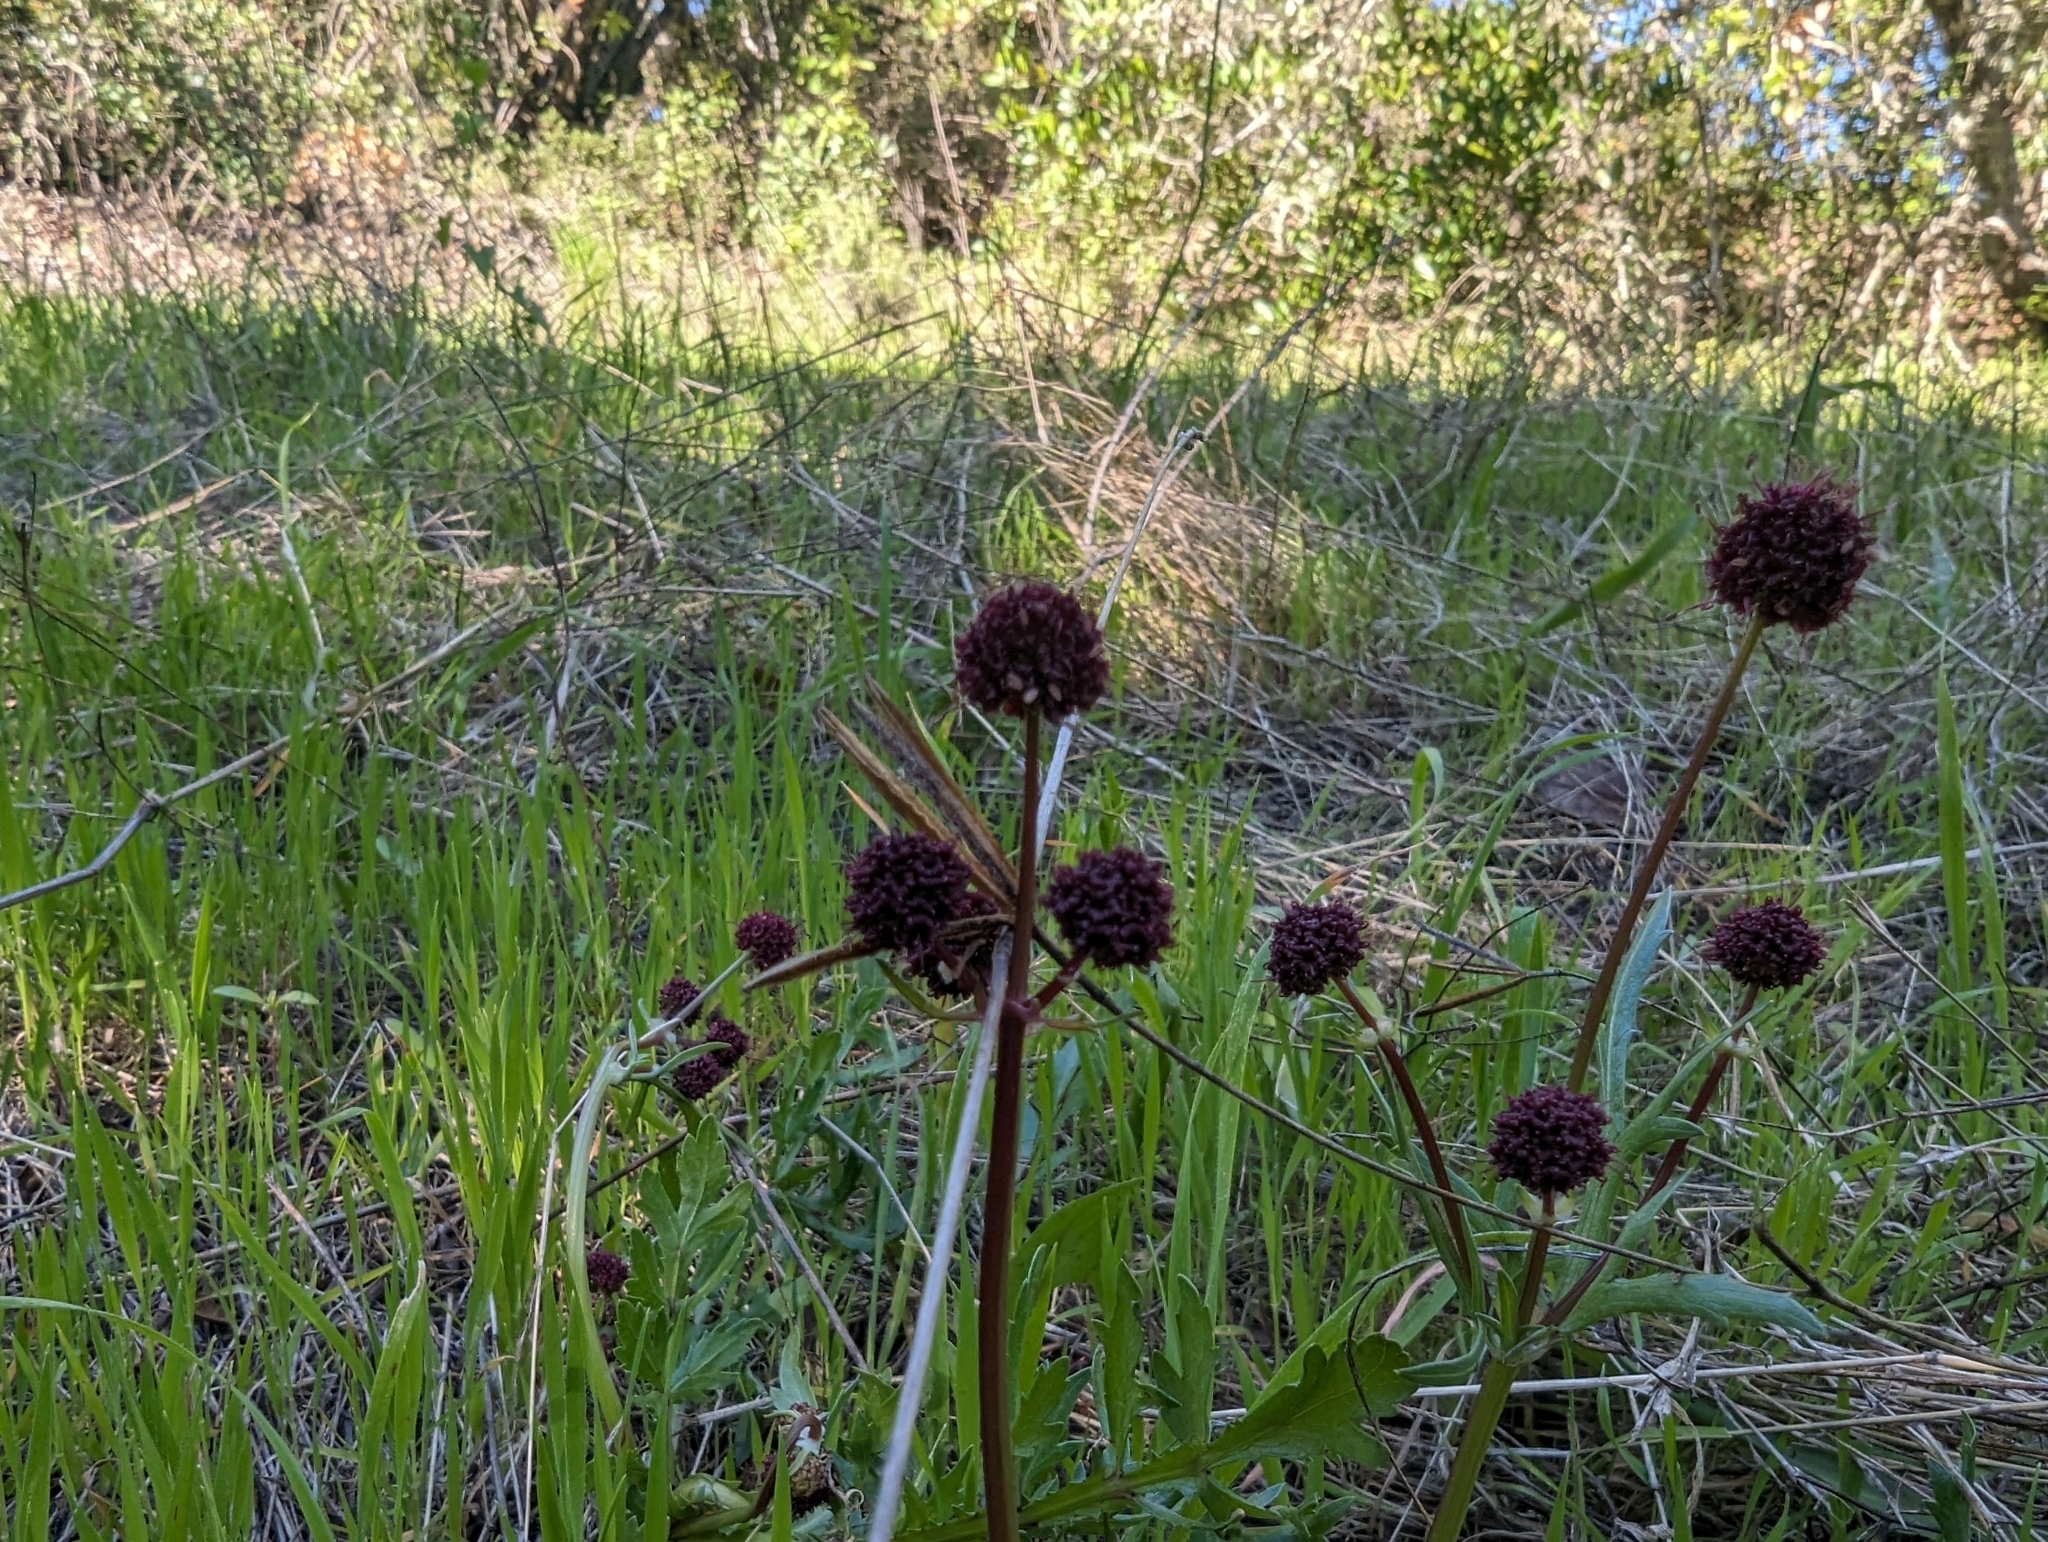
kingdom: Plantae
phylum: Tracheophyta
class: Magnoliopsida
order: Apiales
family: Apiaceae
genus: Sanicula
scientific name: Sanicula bipinnatifida
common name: Shoe-buttons
